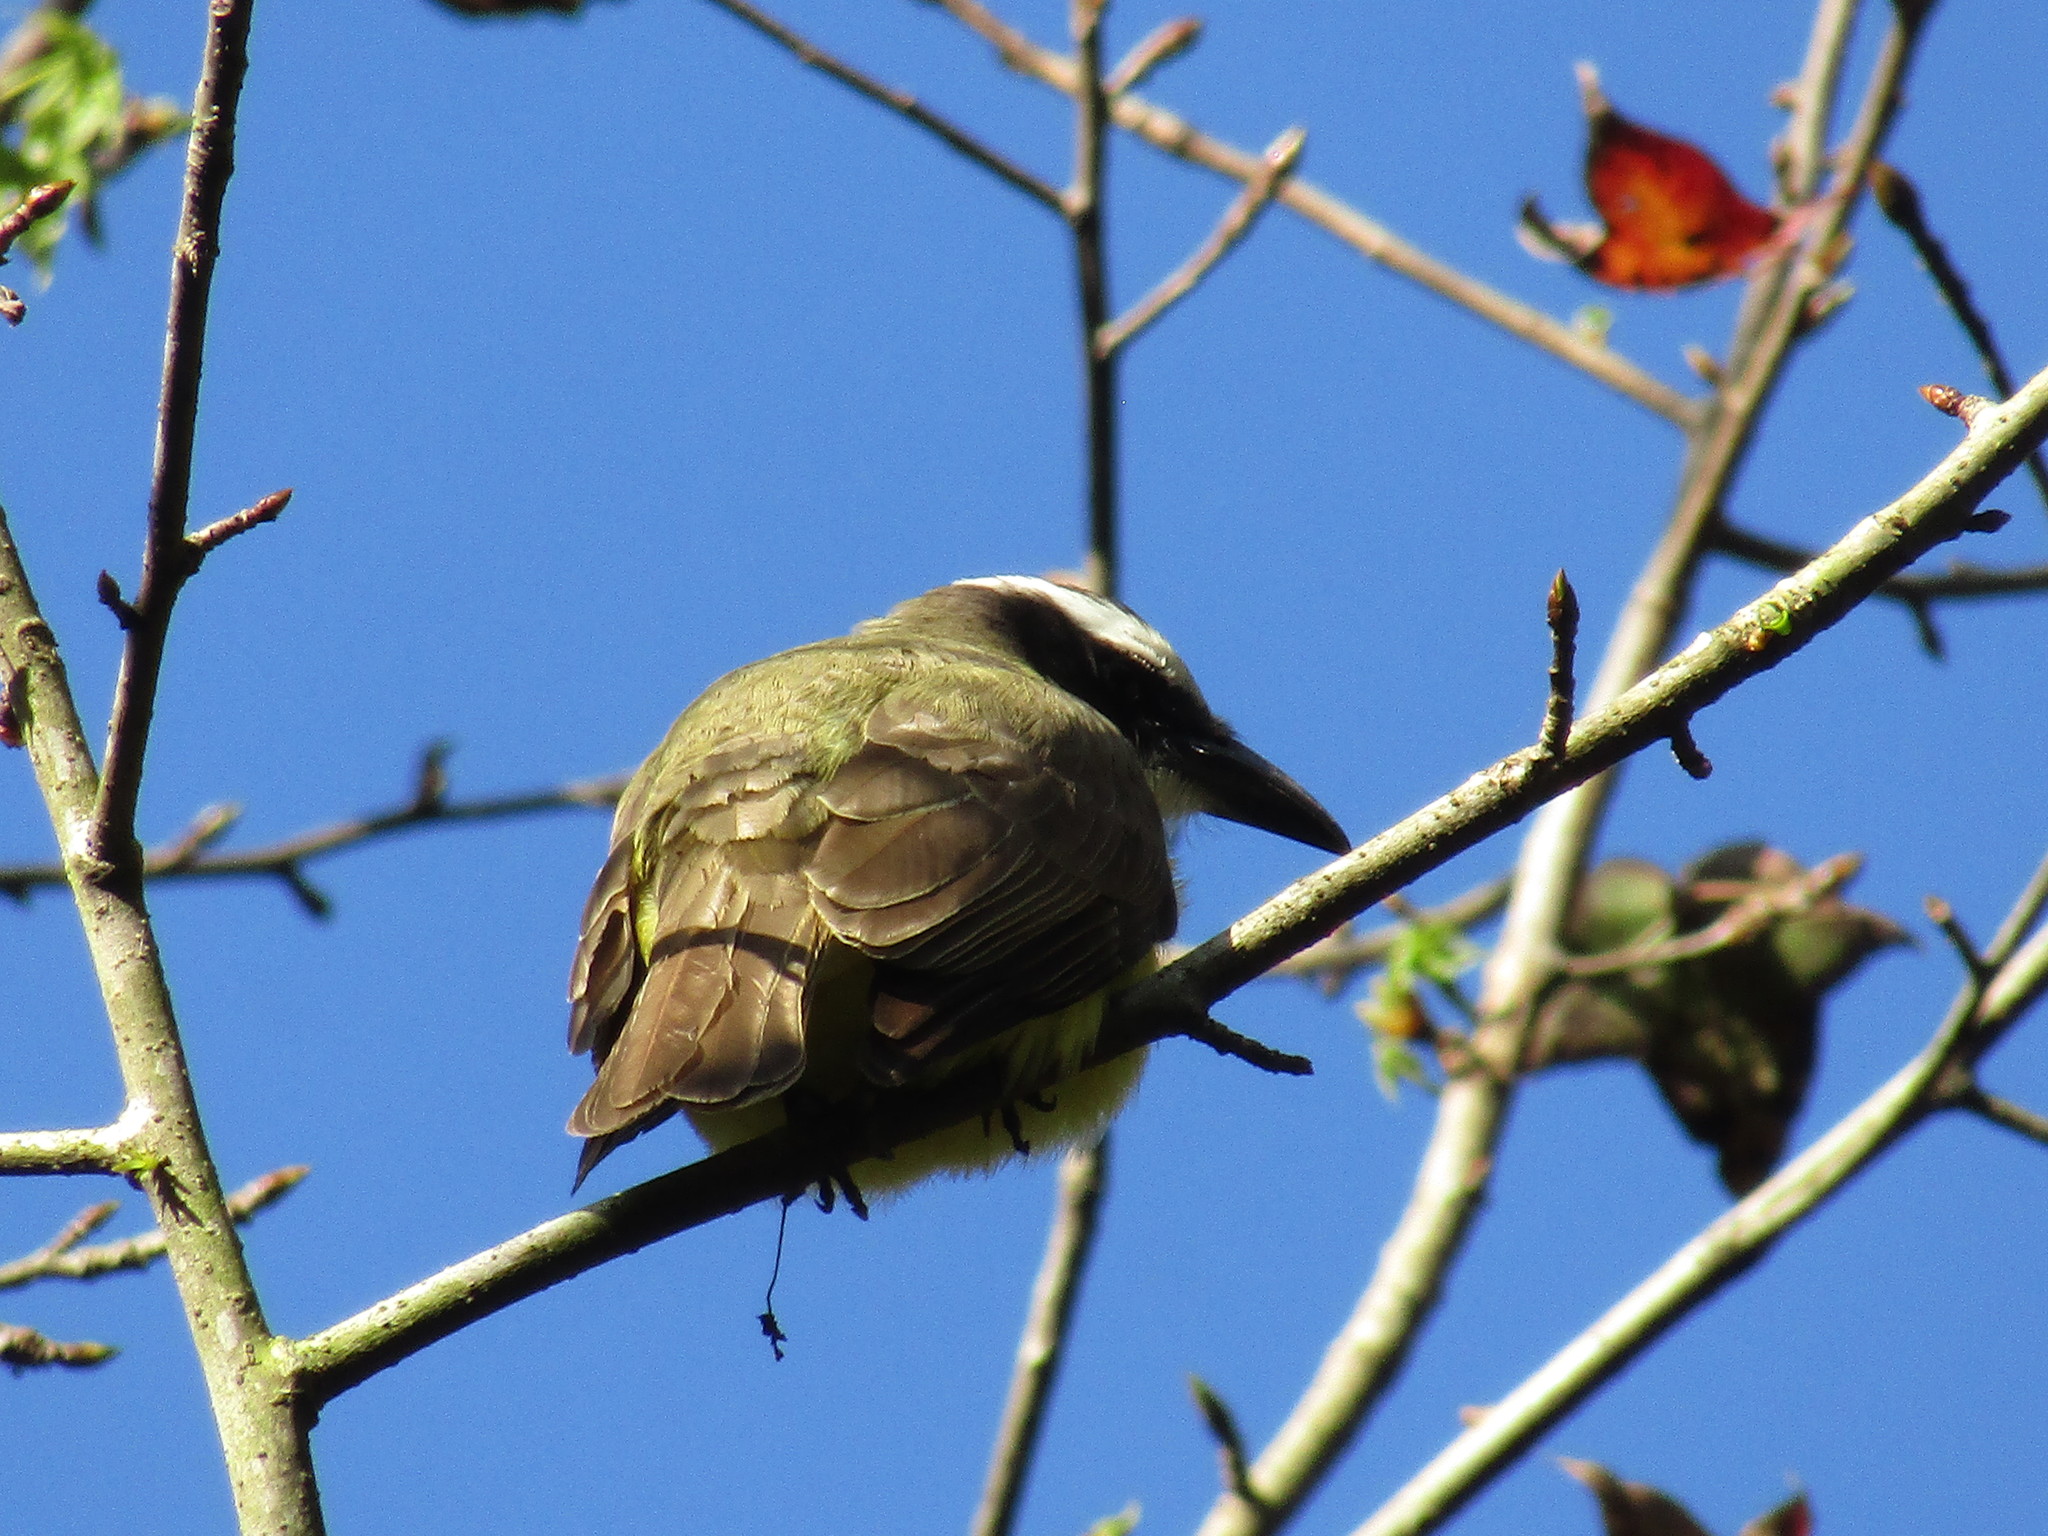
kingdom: Animalia
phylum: Chordata
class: Aves
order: Passeriformes
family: Tyrannidae
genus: Megarynchus
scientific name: Megarynchus pitangua
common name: Boat-billed flycatcher
